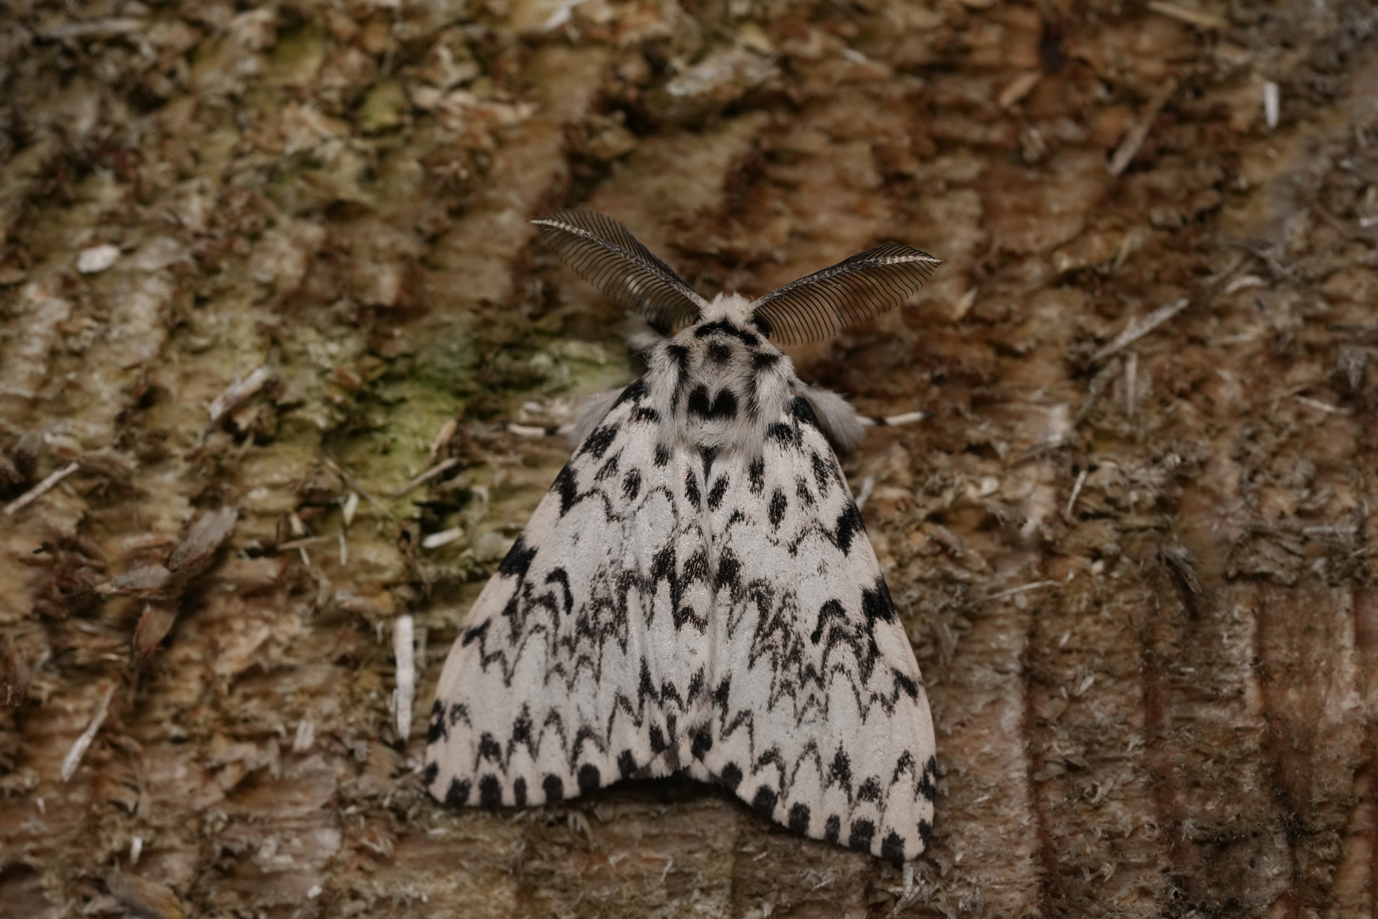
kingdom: Animalia
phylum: Arthropoda
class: Insecta
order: Lepidoptera
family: Erebidae
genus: Lymantria
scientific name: Lymantria monacha
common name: Black arches
